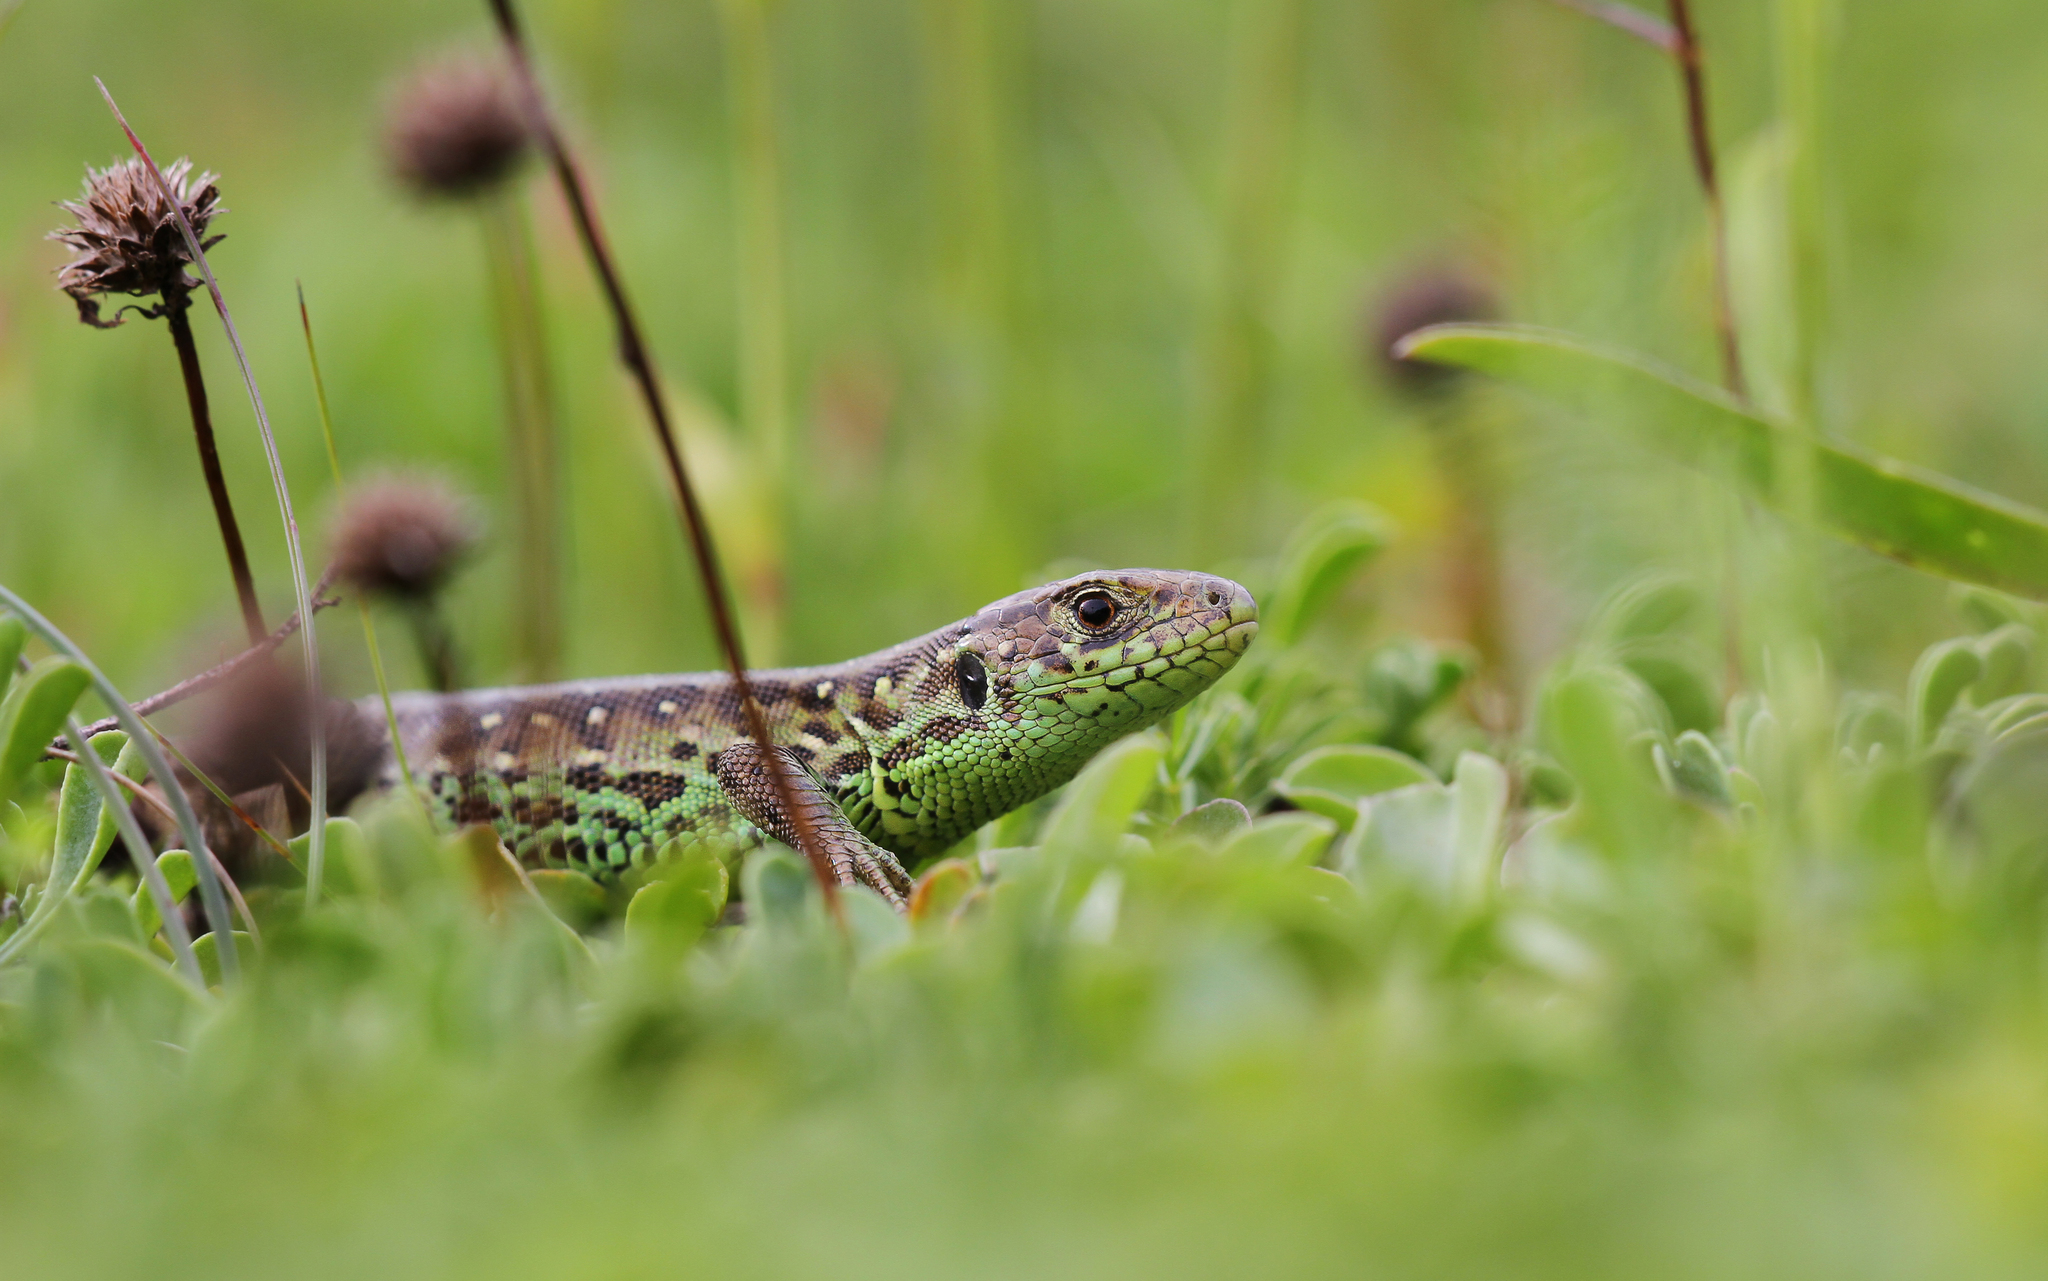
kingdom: Animalia
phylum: Chordata
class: Squamata
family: Lacertidae
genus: Lacerta
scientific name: Lacerta agilis
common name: Sand lizard
